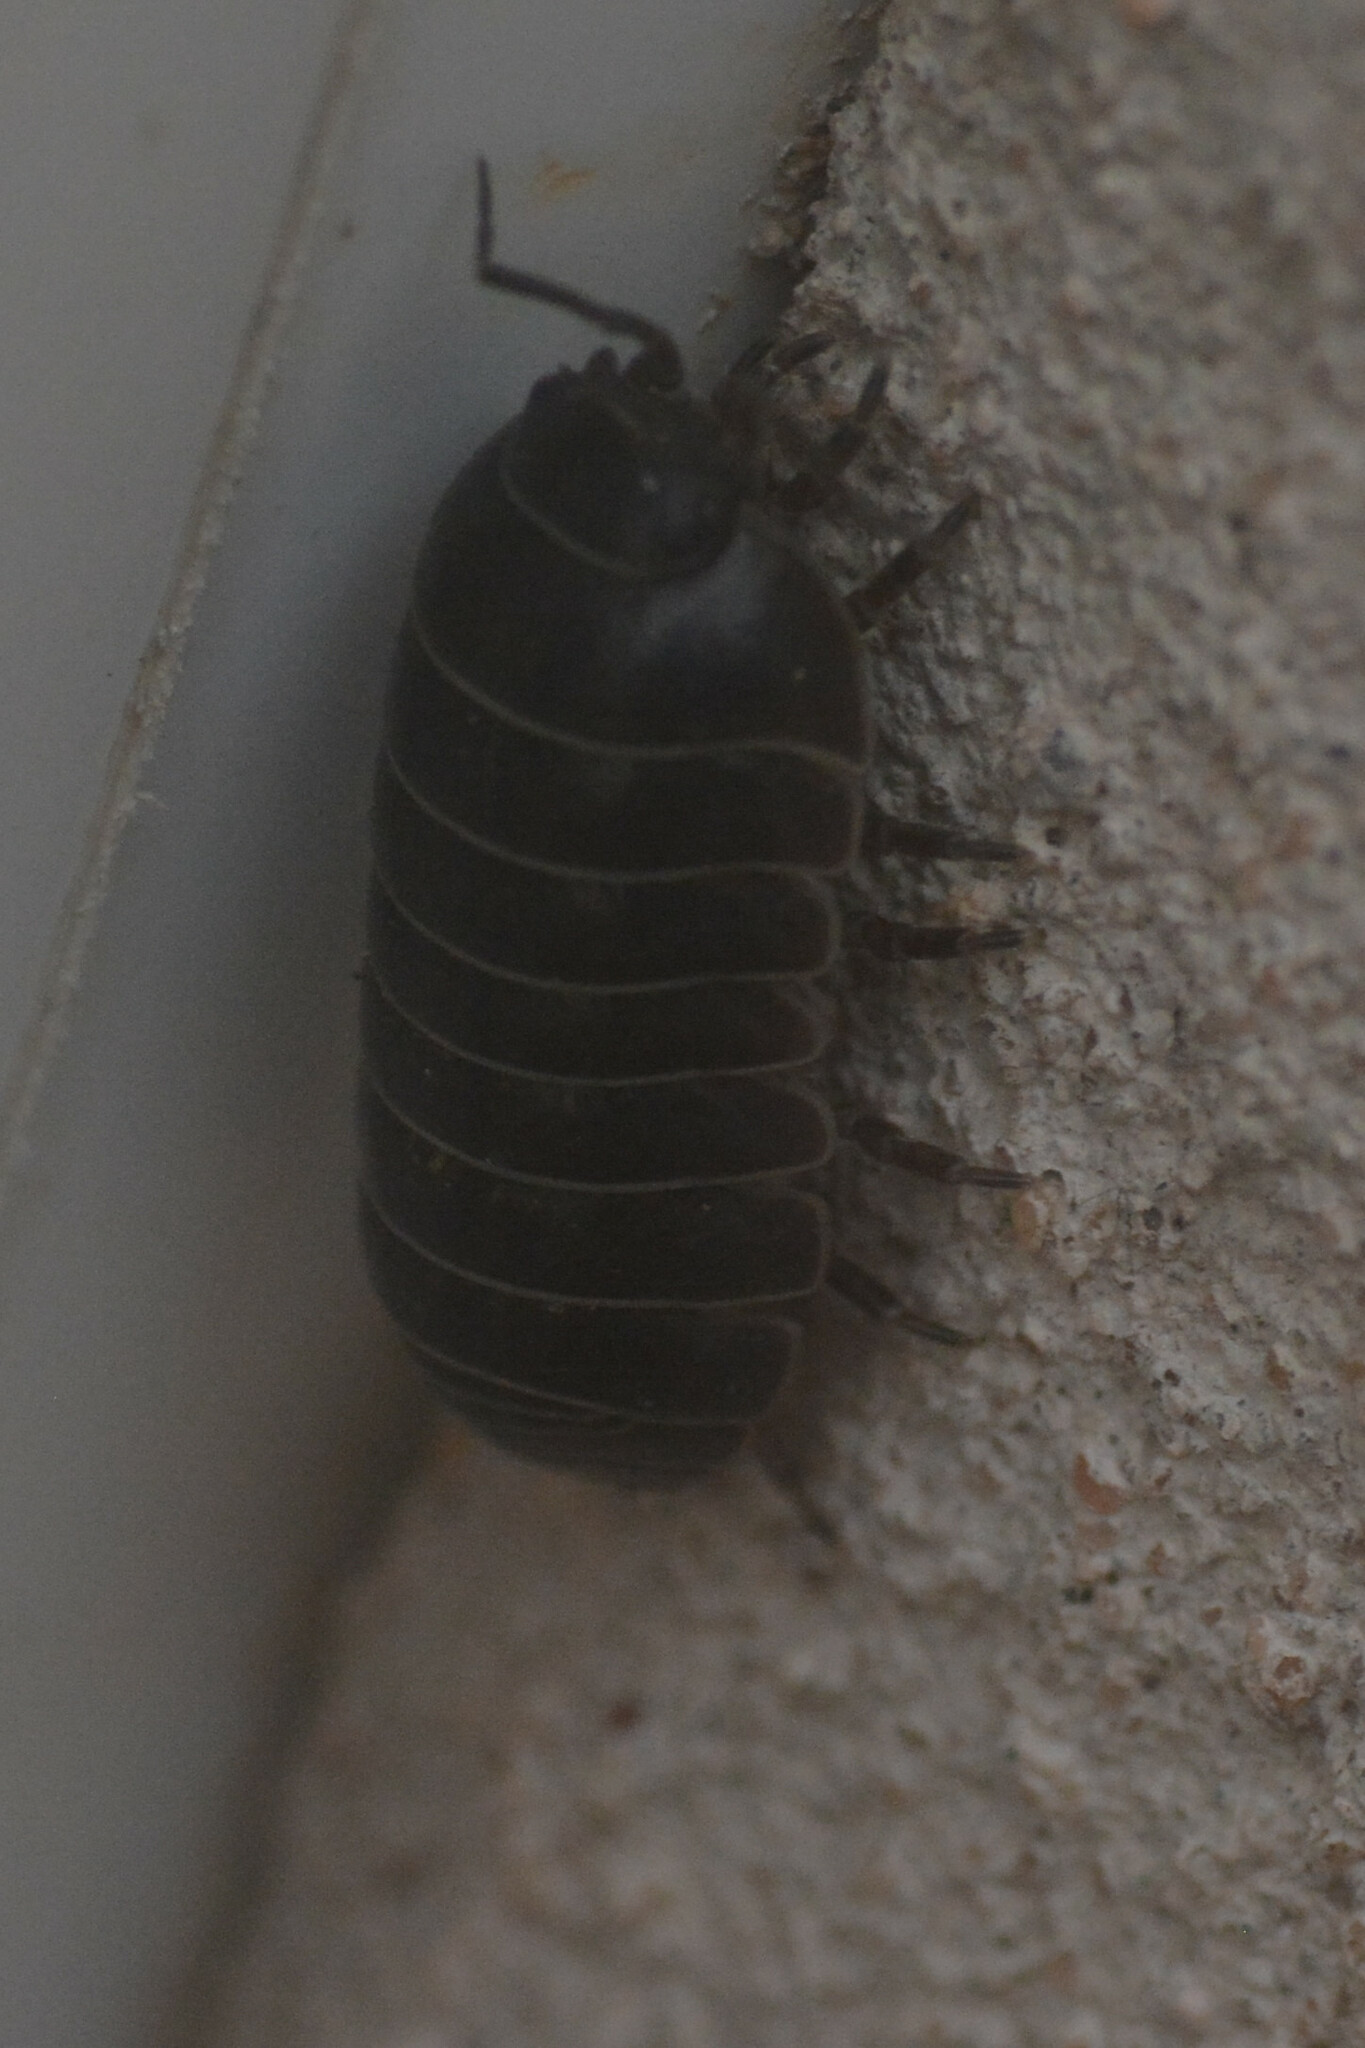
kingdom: Animalia
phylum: Arthropoda
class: Malacostraca
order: Isopoda
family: Armadillidiidae
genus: Armadillidium
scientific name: Armadillidium vulgare
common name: Common pill woodlouse
